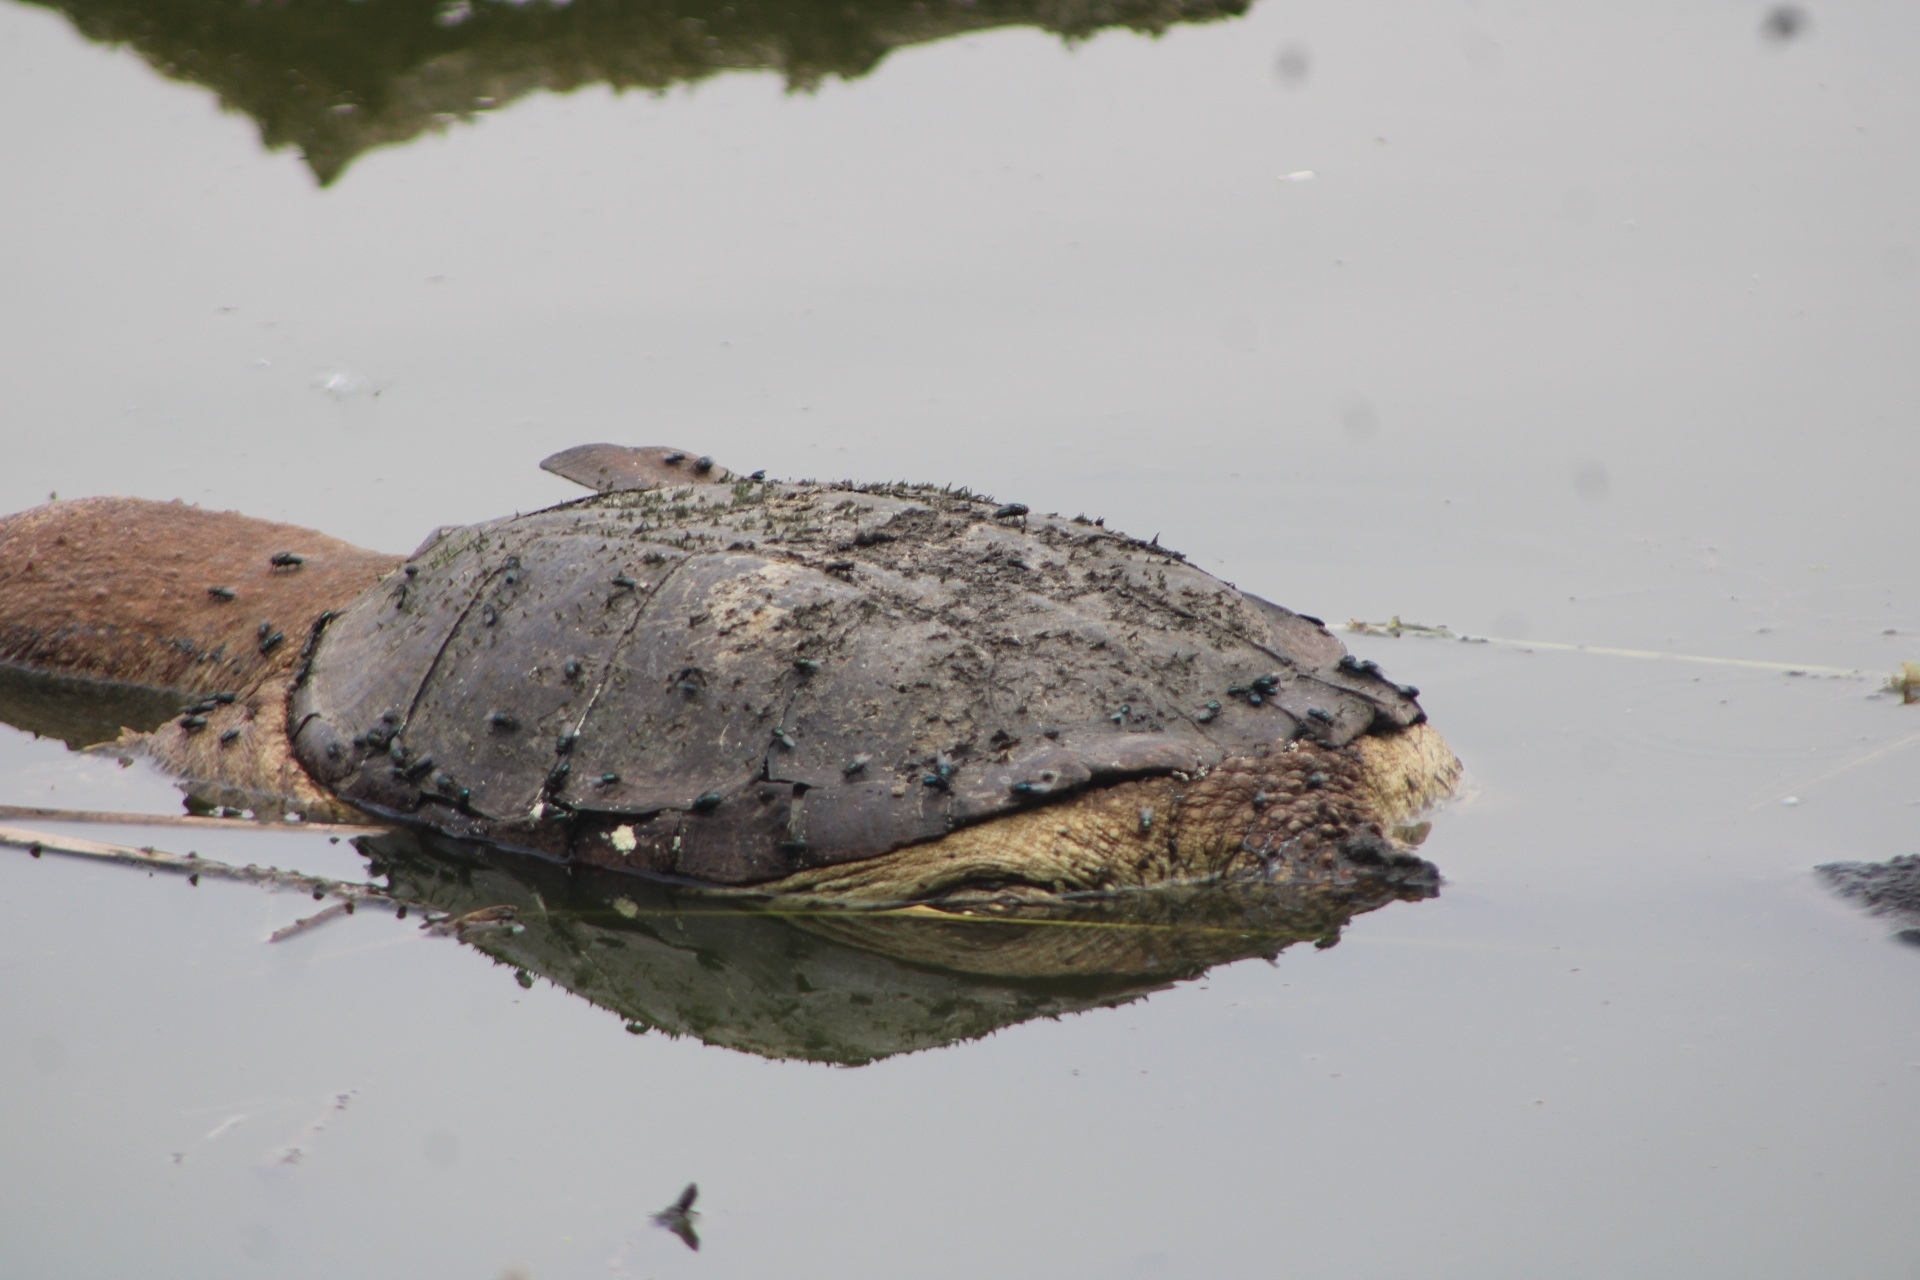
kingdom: Animalia
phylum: Chordata
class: Testudines
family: Chelydridae
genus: Chelydra
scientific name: Chelydra serpentina
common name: Common snapping turtle
